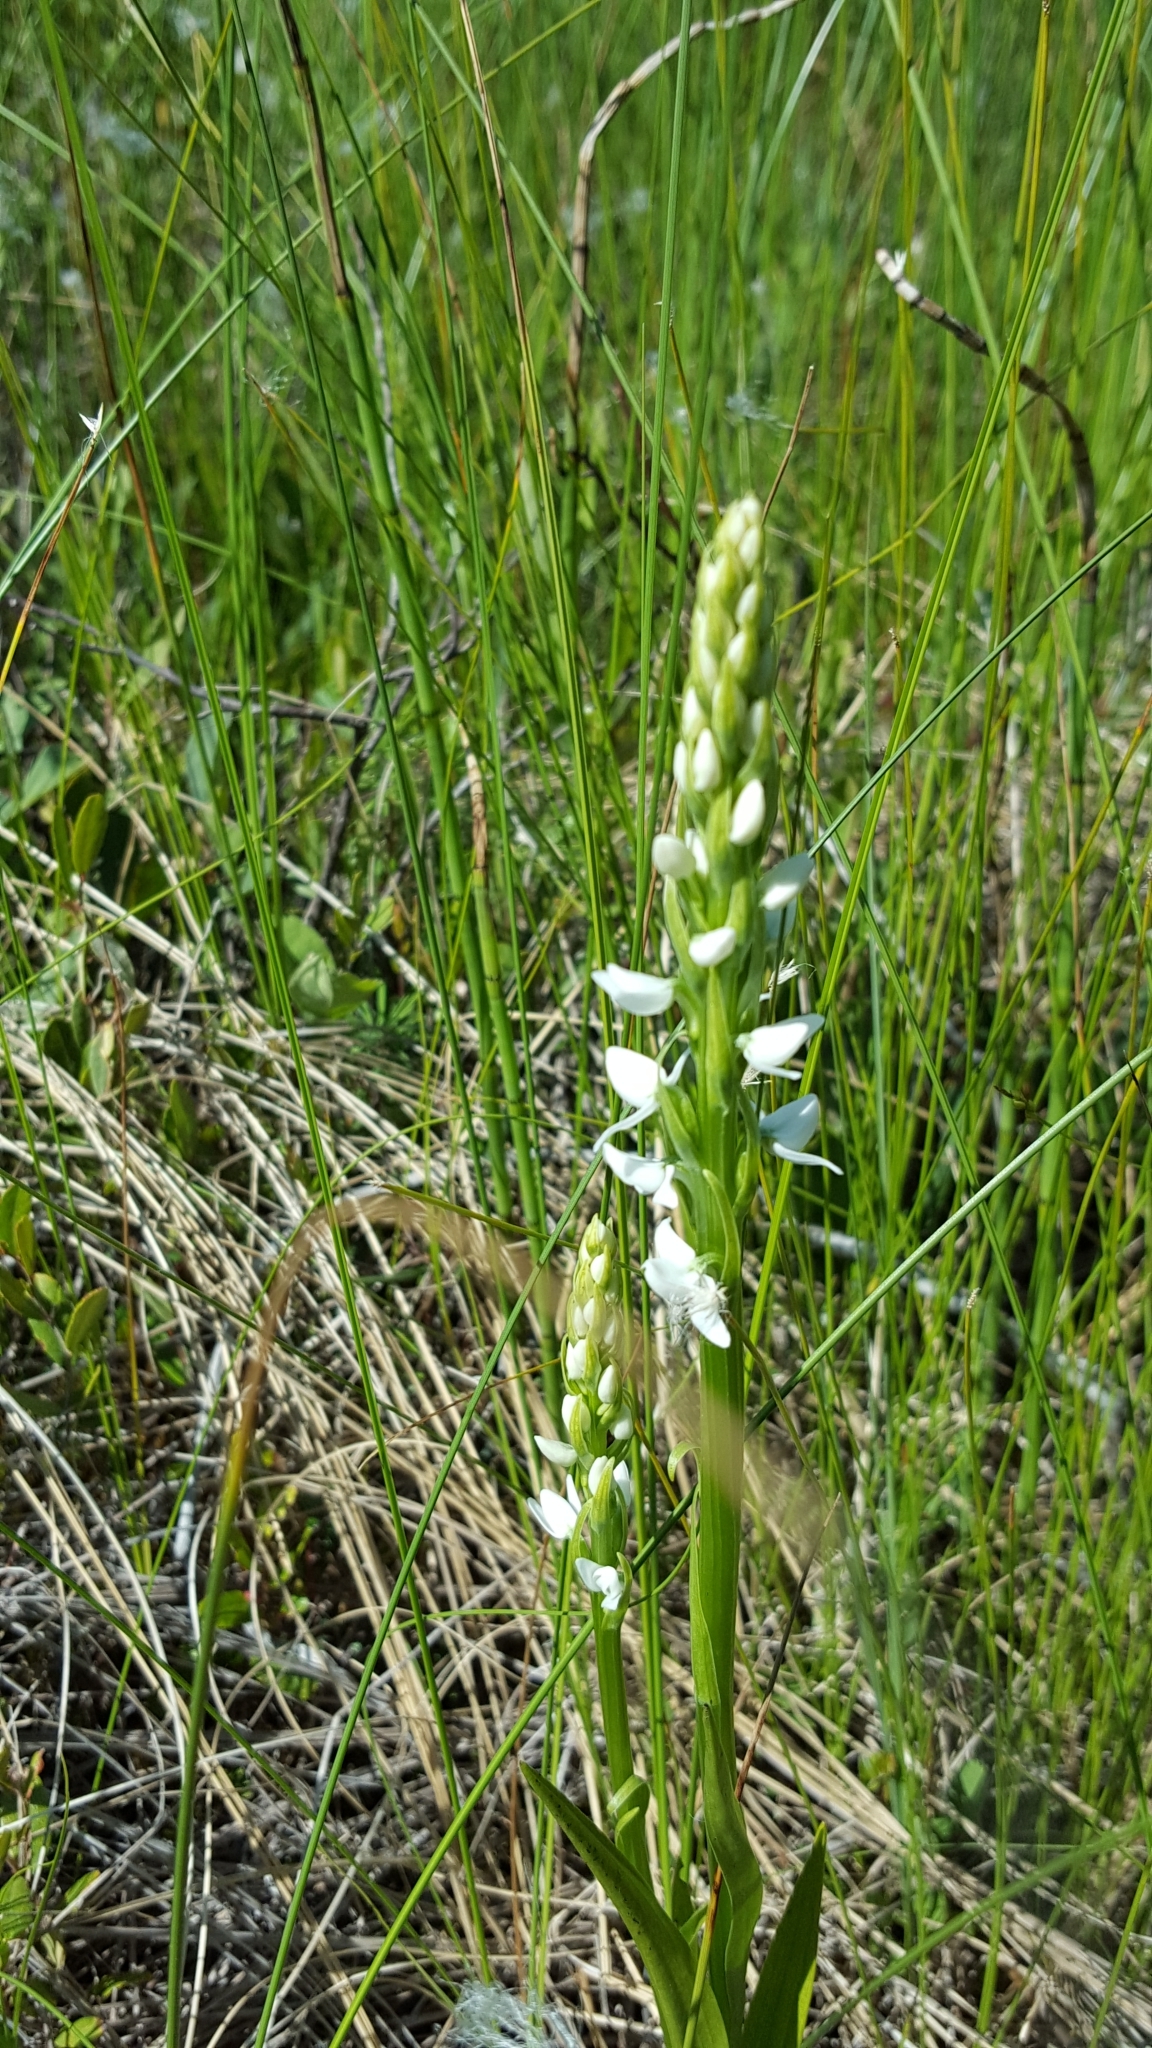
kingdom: Plantae
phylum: Tracheophyta
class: Liliopsida
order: Asparagales
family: Orchidaceae
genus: Platanthera
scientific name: Platanthera dilatata
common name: Bog candles
